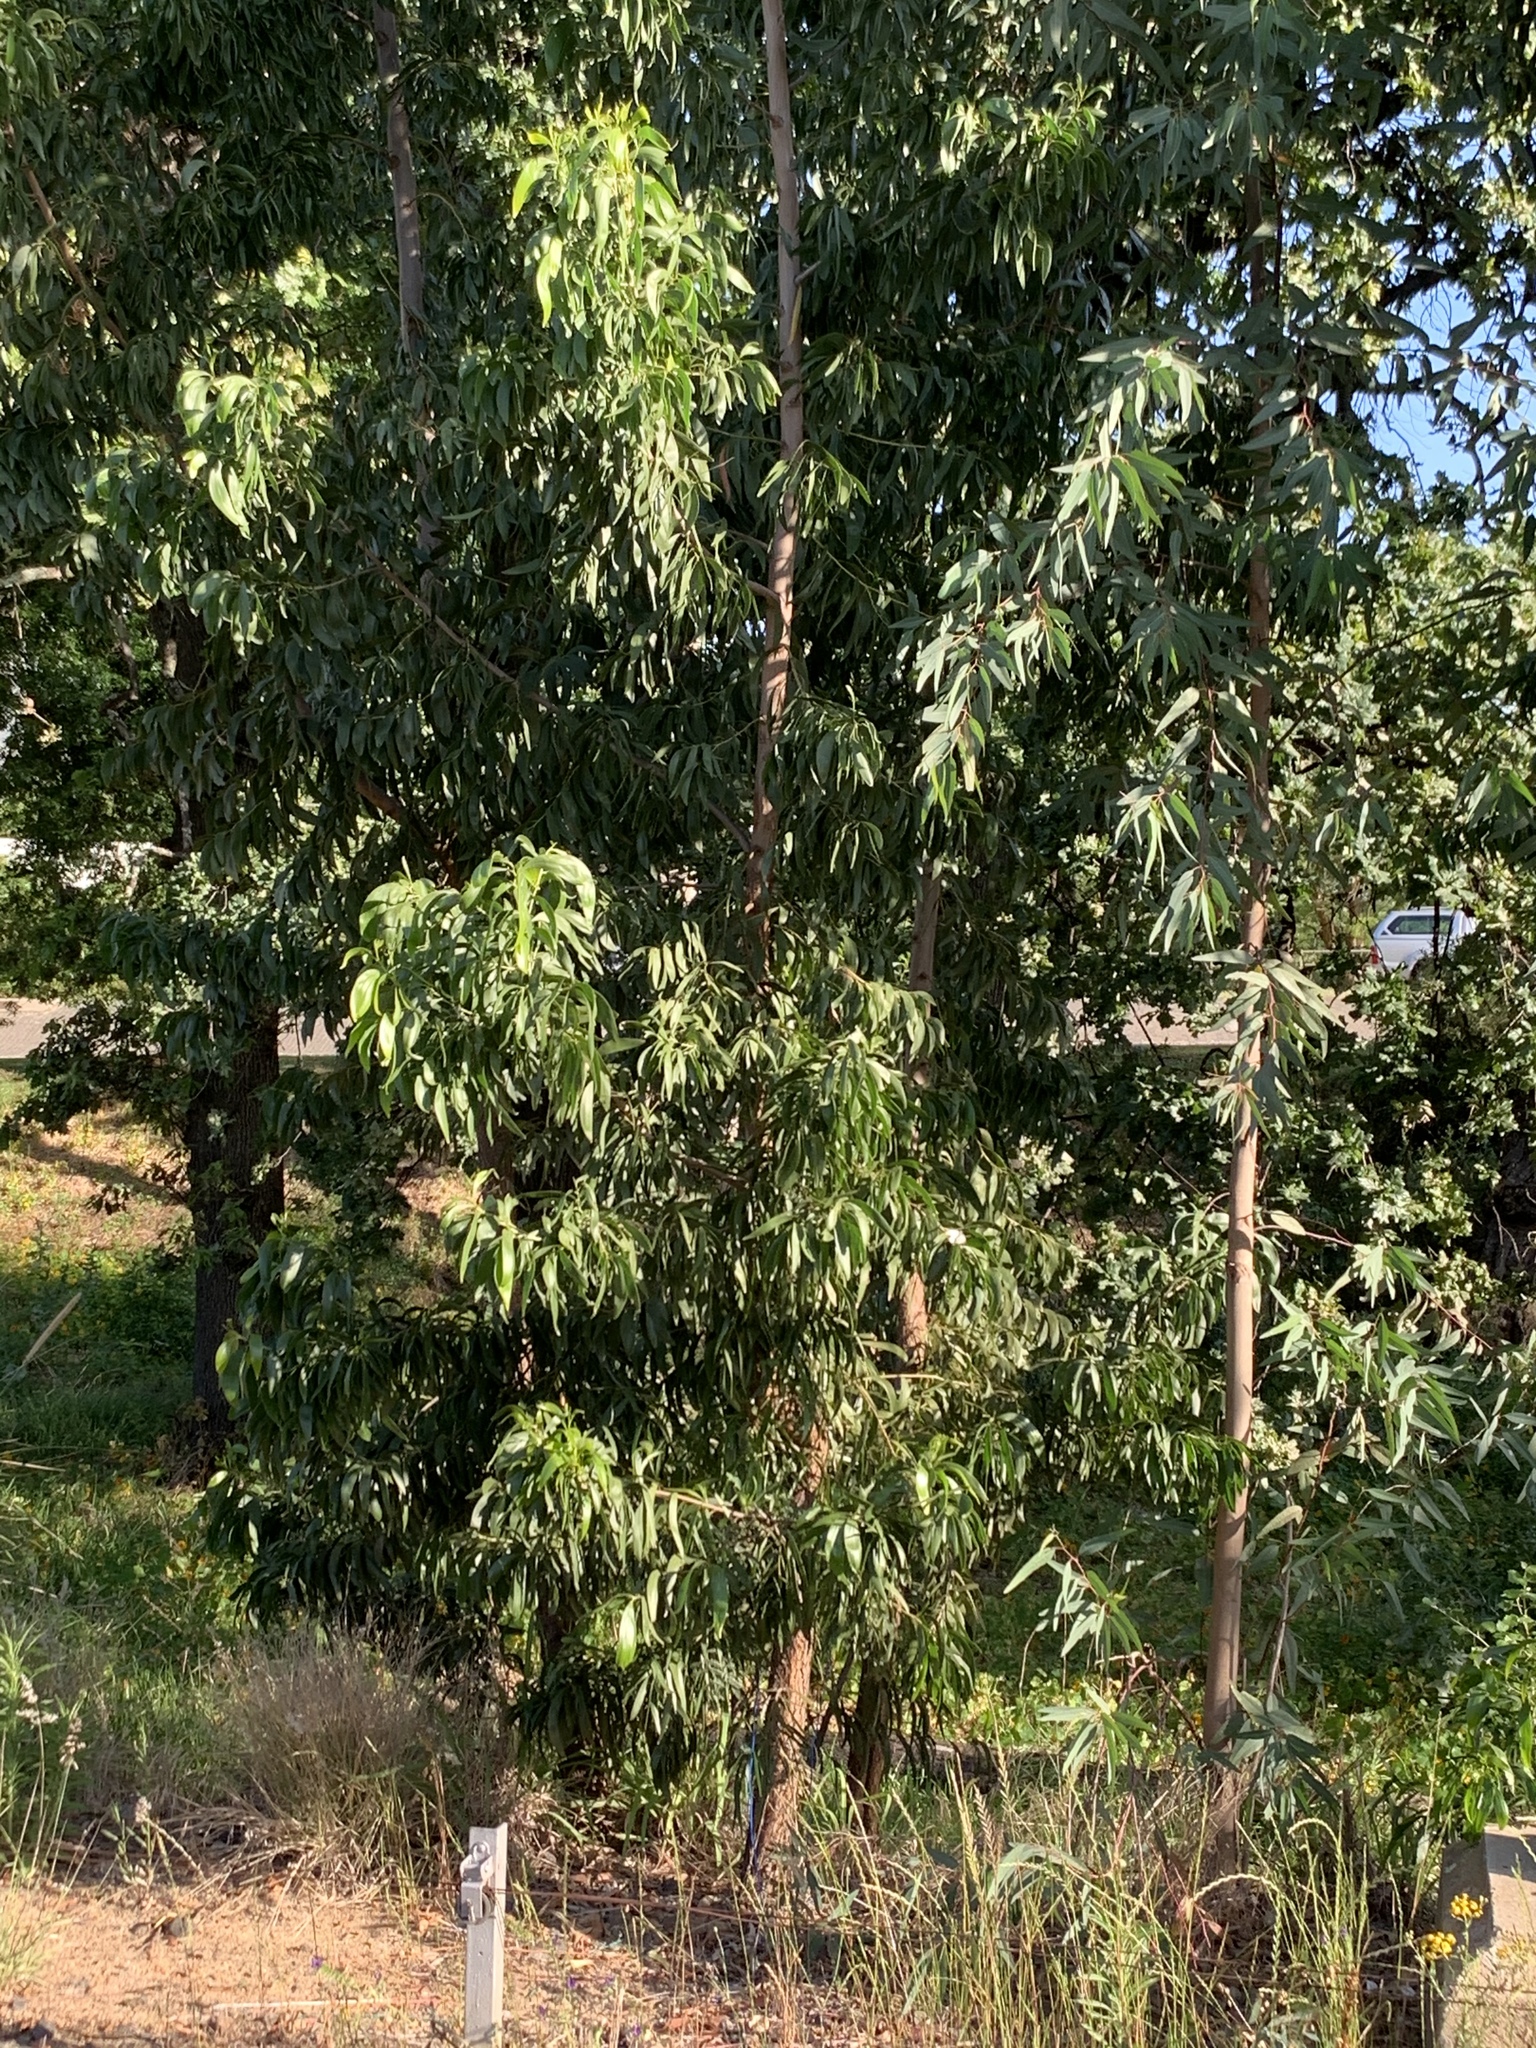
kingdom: Plantae
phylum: Tracheophyta
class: Magnoliopsida
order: Fabales
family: Fabaceae
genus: Acacia
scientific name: Acacia implexa
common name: Black wattle
